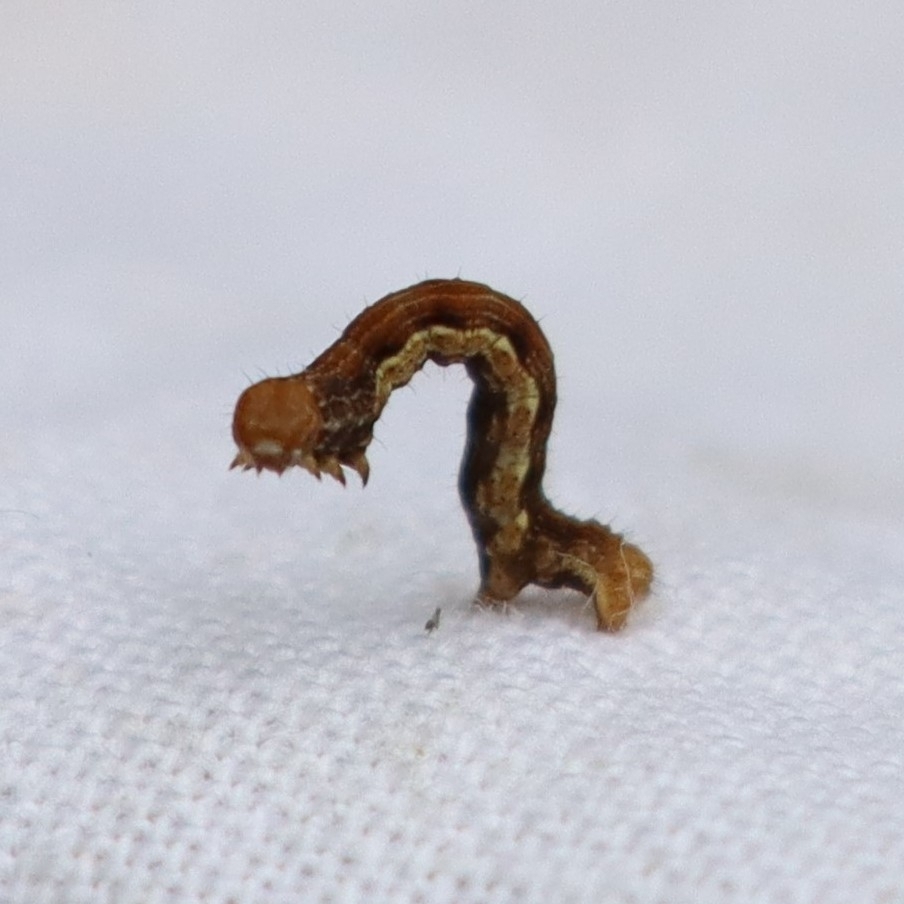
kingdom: Animalia
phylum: Arthropoda
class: Insecta
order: Lepidoptera
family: Geometridae
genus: Erannis
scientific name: Erannis defoliaria
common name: Mottled umber
